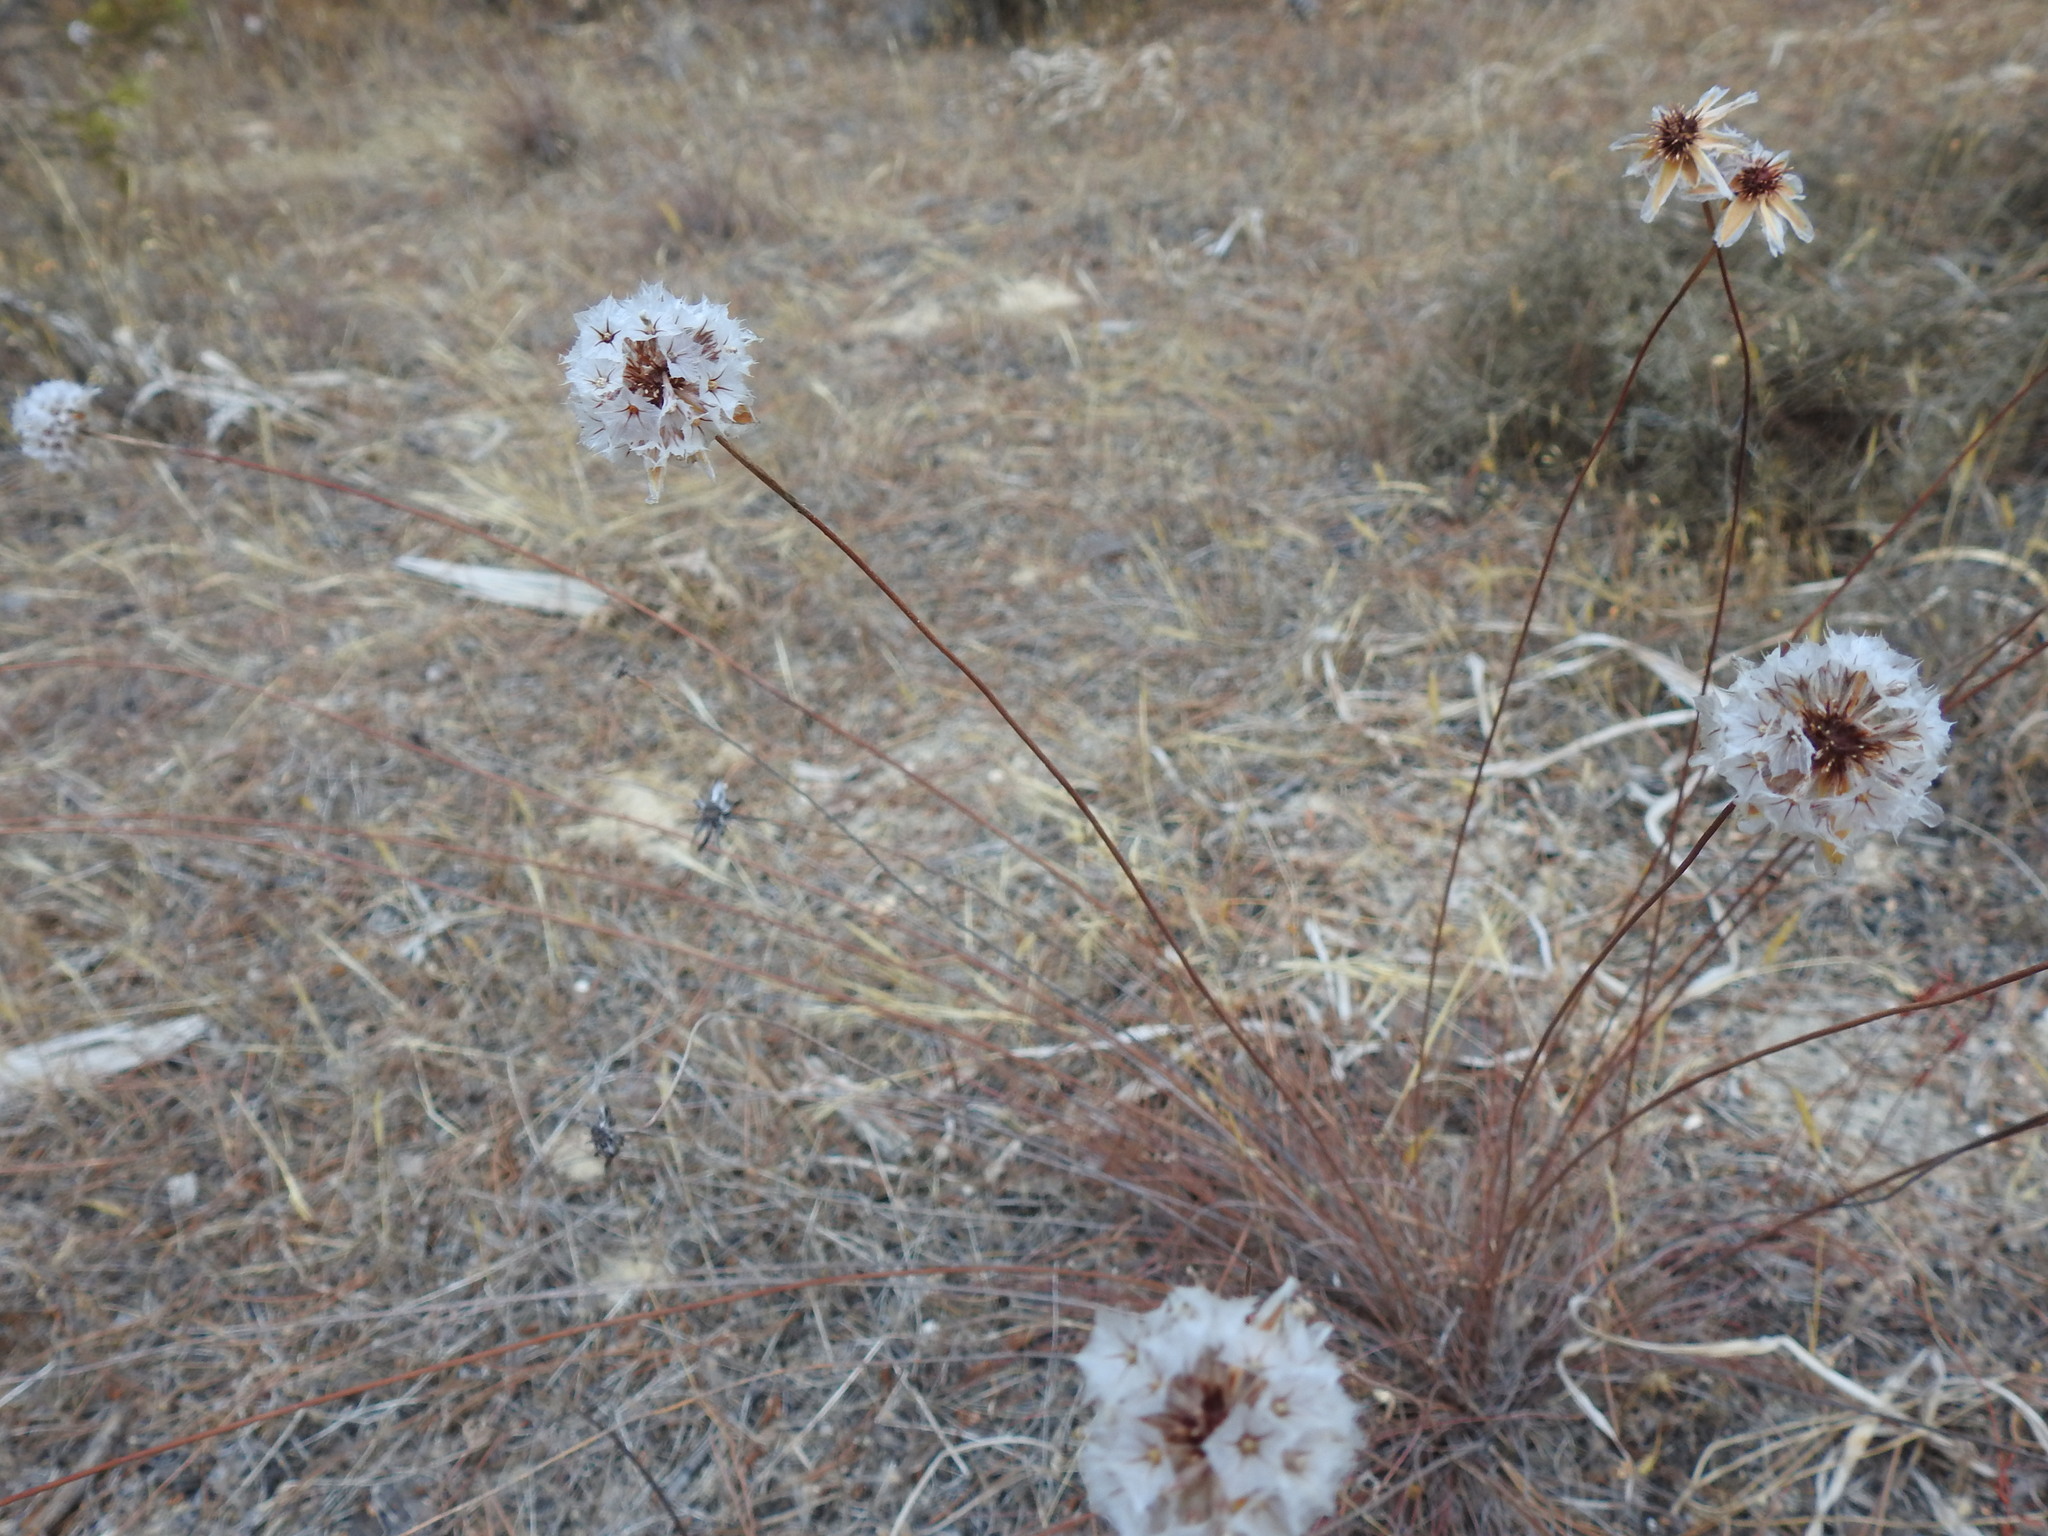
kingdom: Plantae
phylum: Tracheophyta
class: Magnoliopsida
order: Caryophyllales
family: Plumbaginaceae
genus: Armeria
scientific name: Armeria macrophylla
